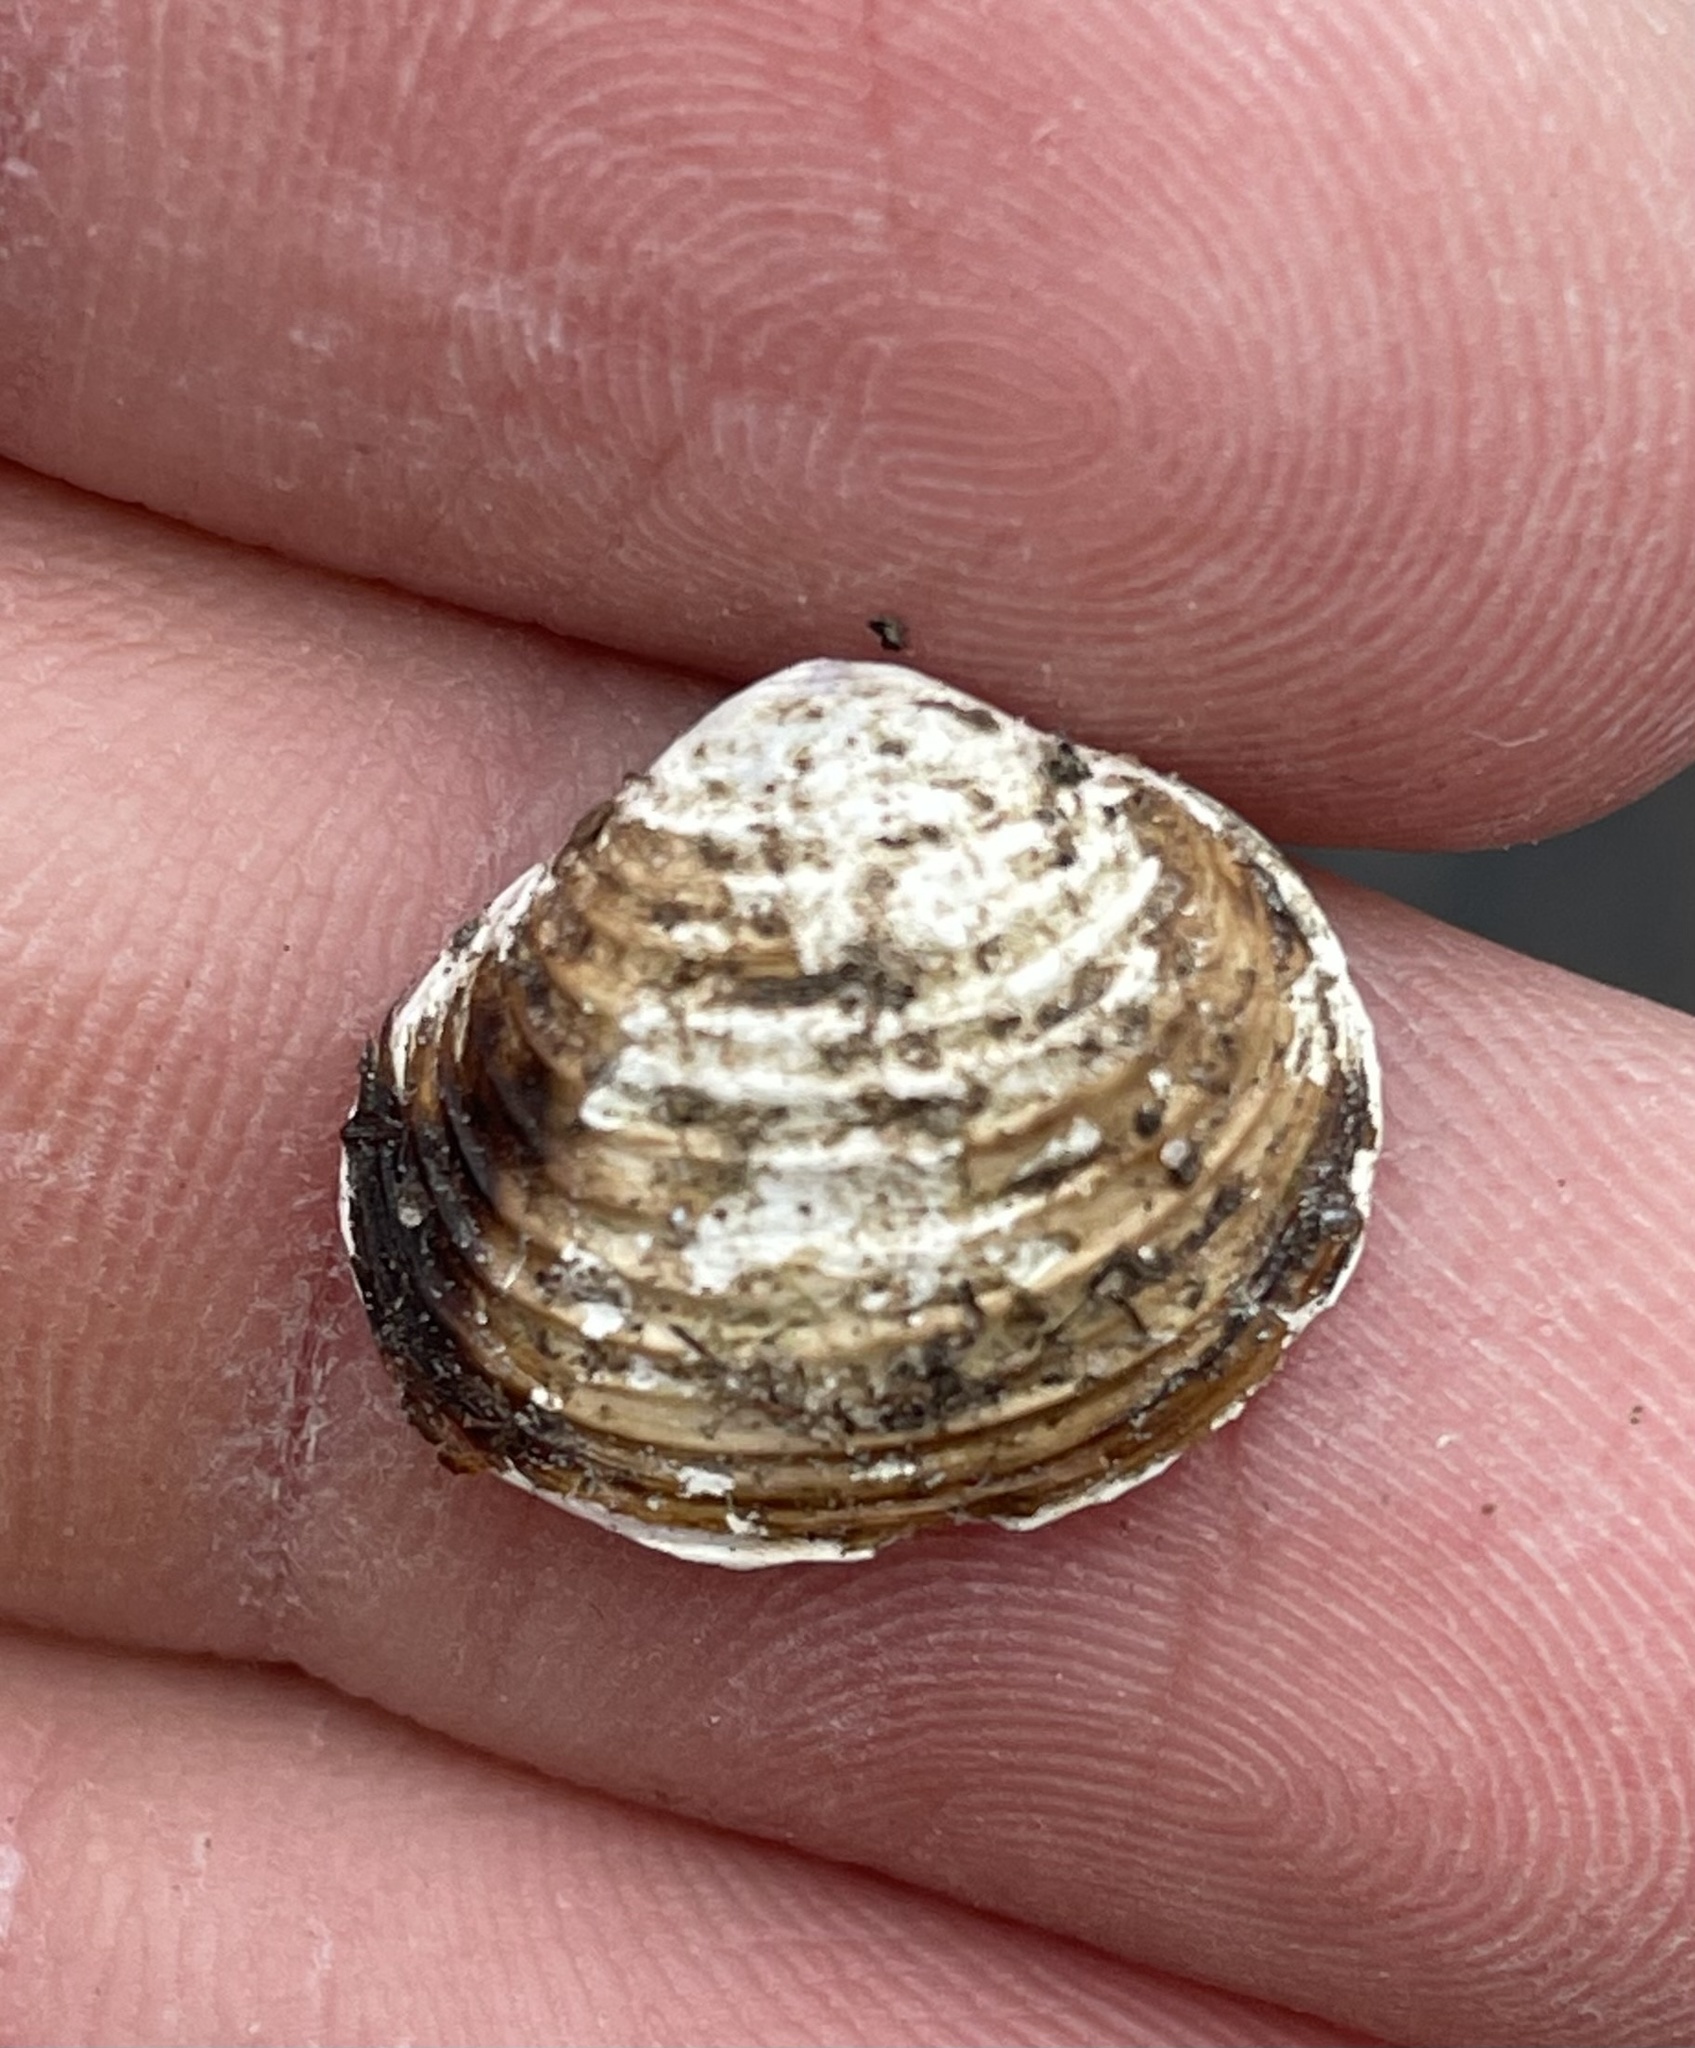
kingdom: Animalia
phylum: Mollusca
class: Bivalvia
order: Venerida
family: Cyrenidae
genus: Corbicula
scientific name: Corbicula fluminea
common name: Asian clam
